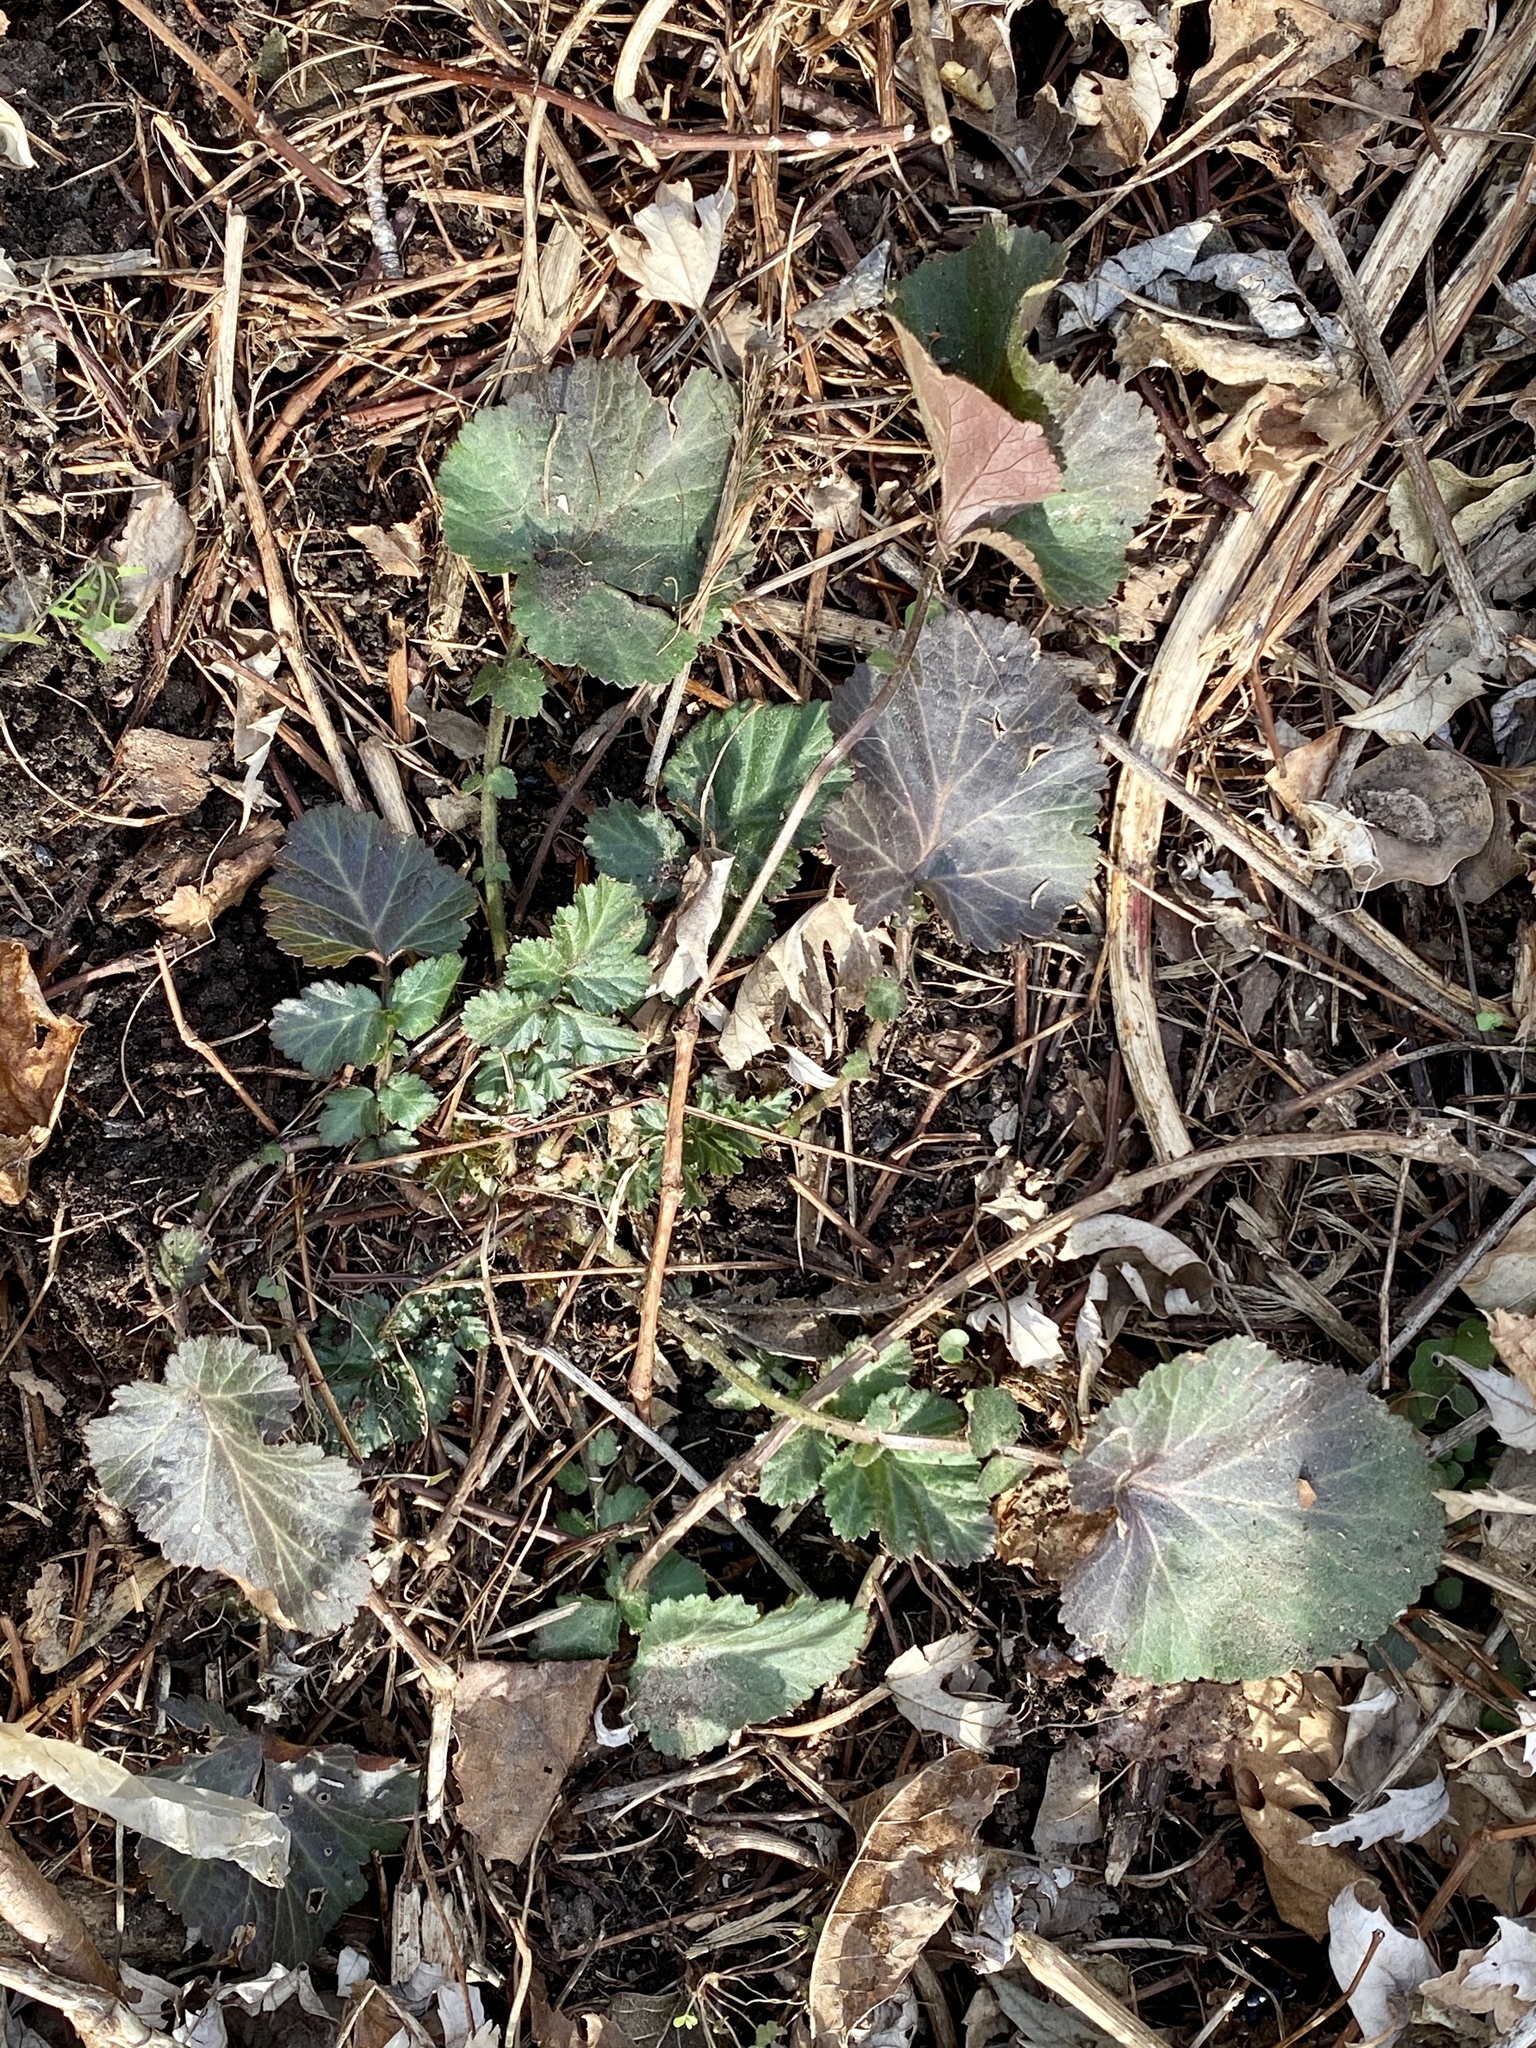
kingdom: Plantae
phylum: Tracheophyta
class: Magnoliopsida
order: Rosales
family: Rosaceae
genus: Geum
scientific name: Geum canadense
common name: White avens
